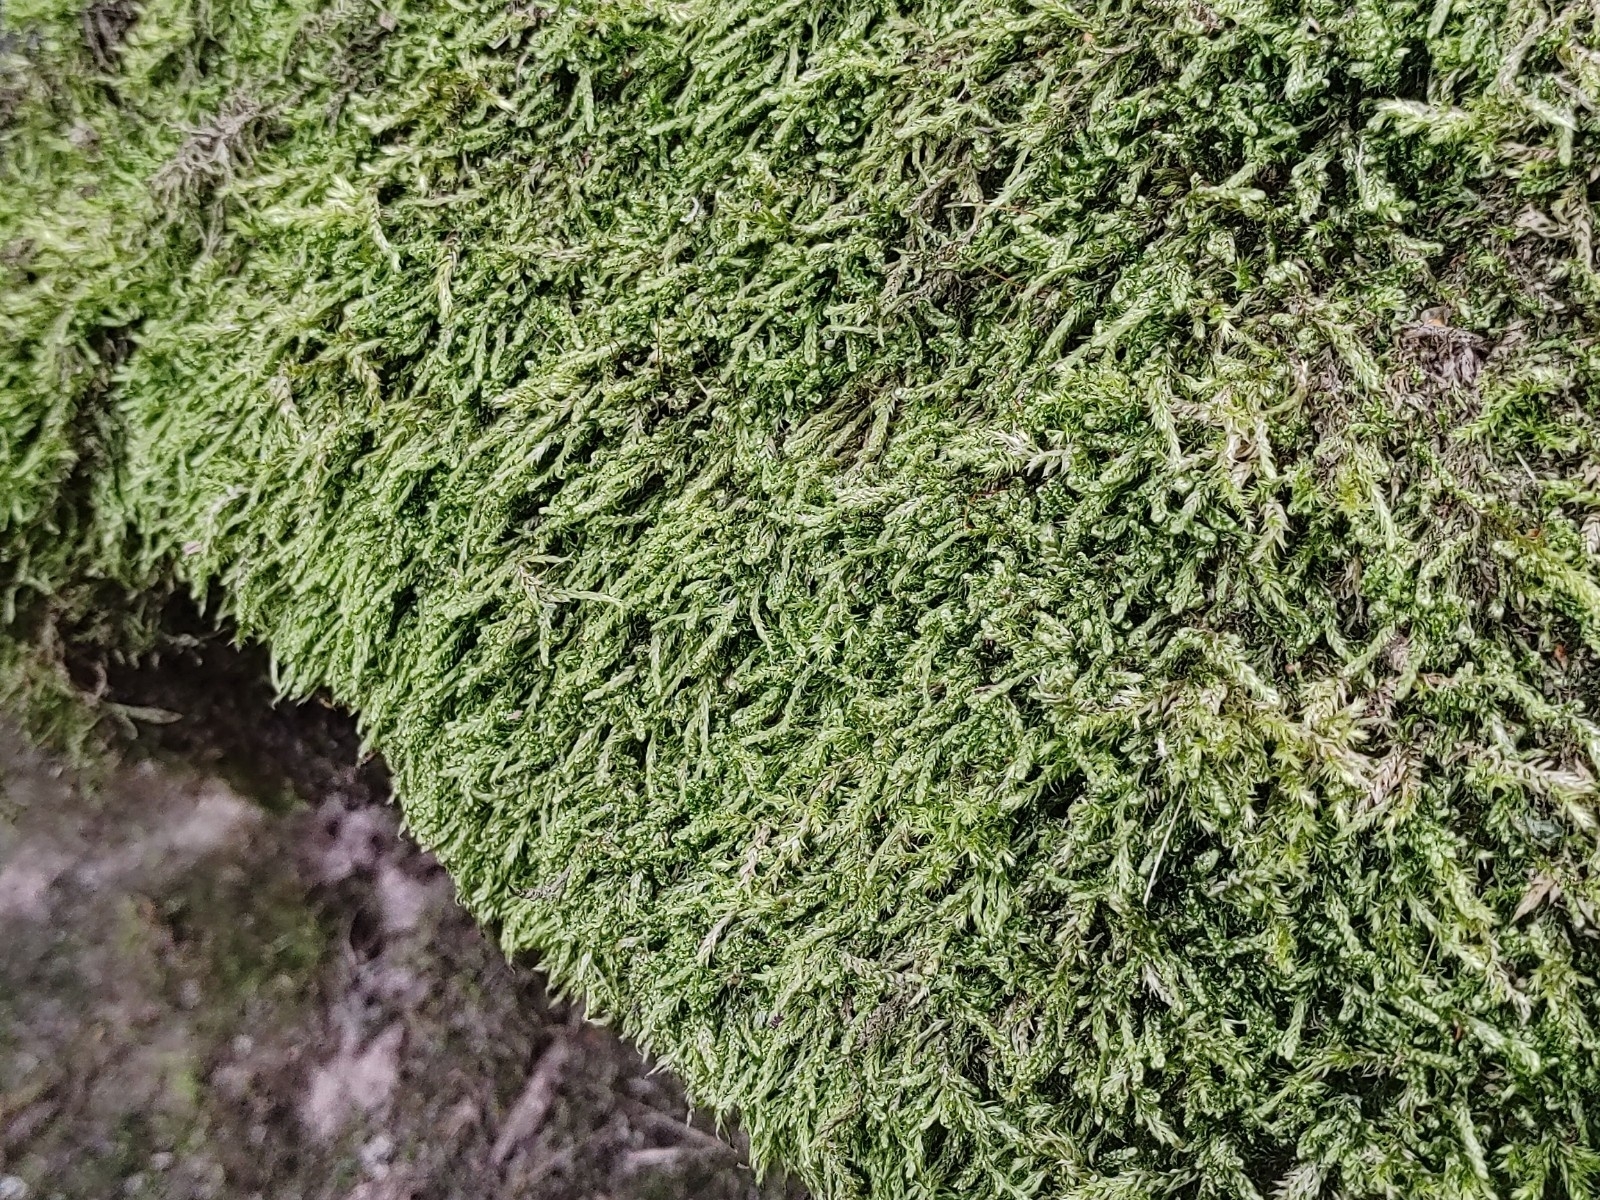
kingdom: Plantae
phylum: Bryophyta
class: Bryopsida
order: Hypnales
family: Hypnaceae
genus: Hypnum
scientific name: Hypnum cupressiforme
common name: Cypress-leaved plait-moss
